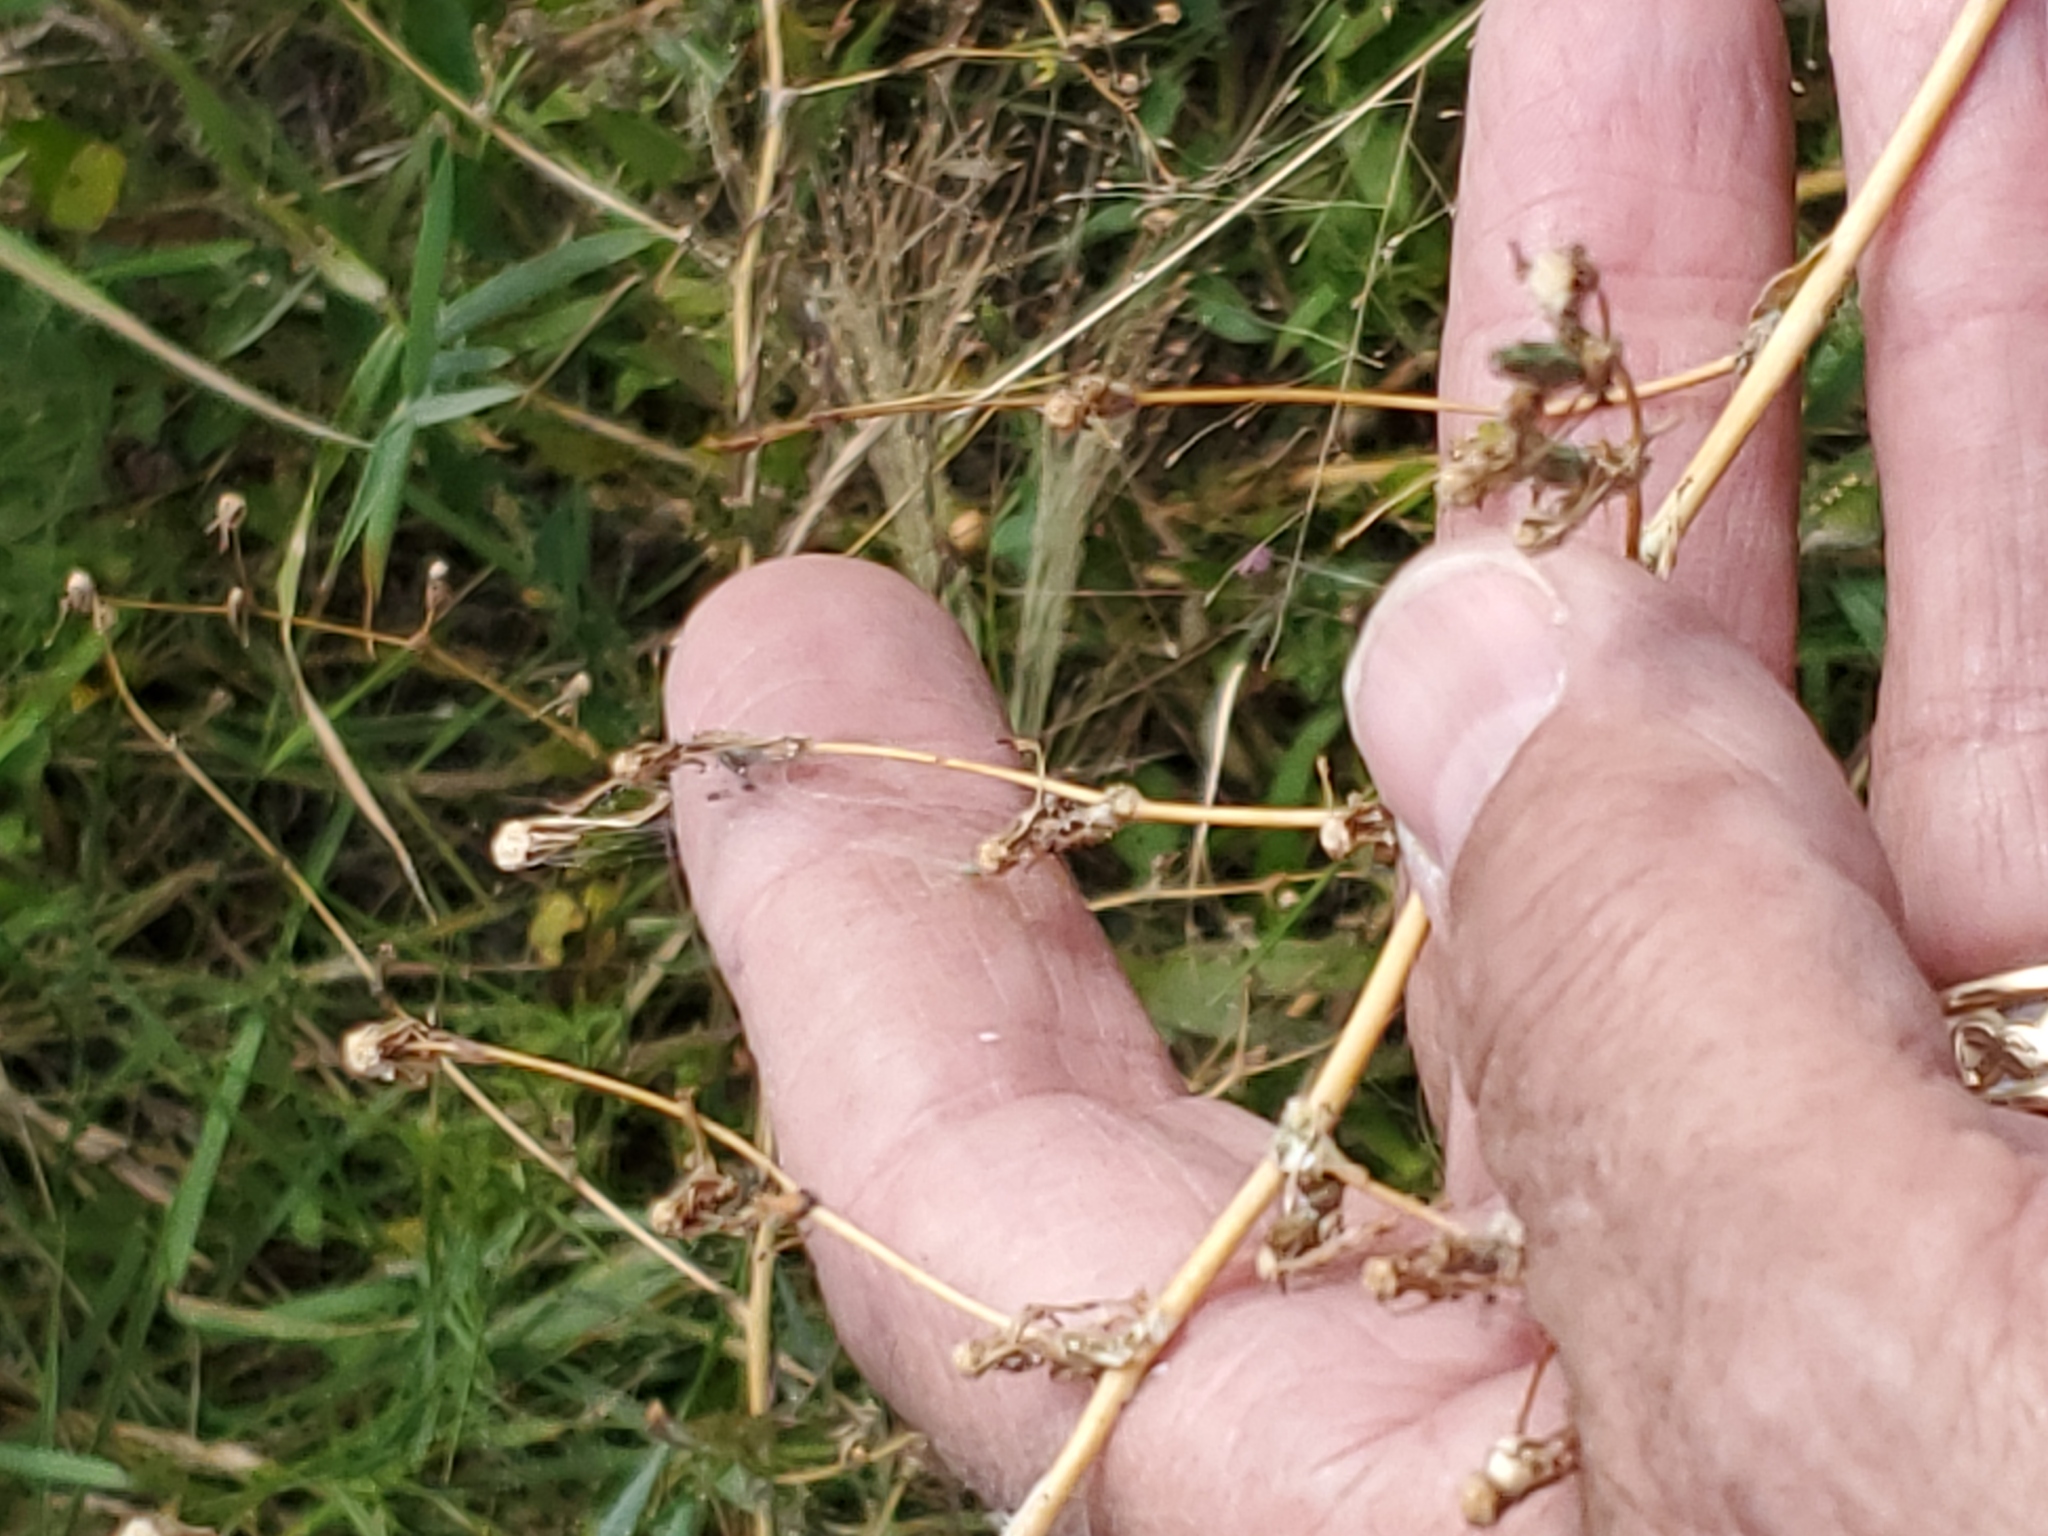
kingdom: Plantae
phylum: Tracheophyta
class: Magnoliopsida
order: Asterales
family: Asteraceae
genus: Lactuca
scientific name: Lactuca serriola
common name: Prickly lettuce
